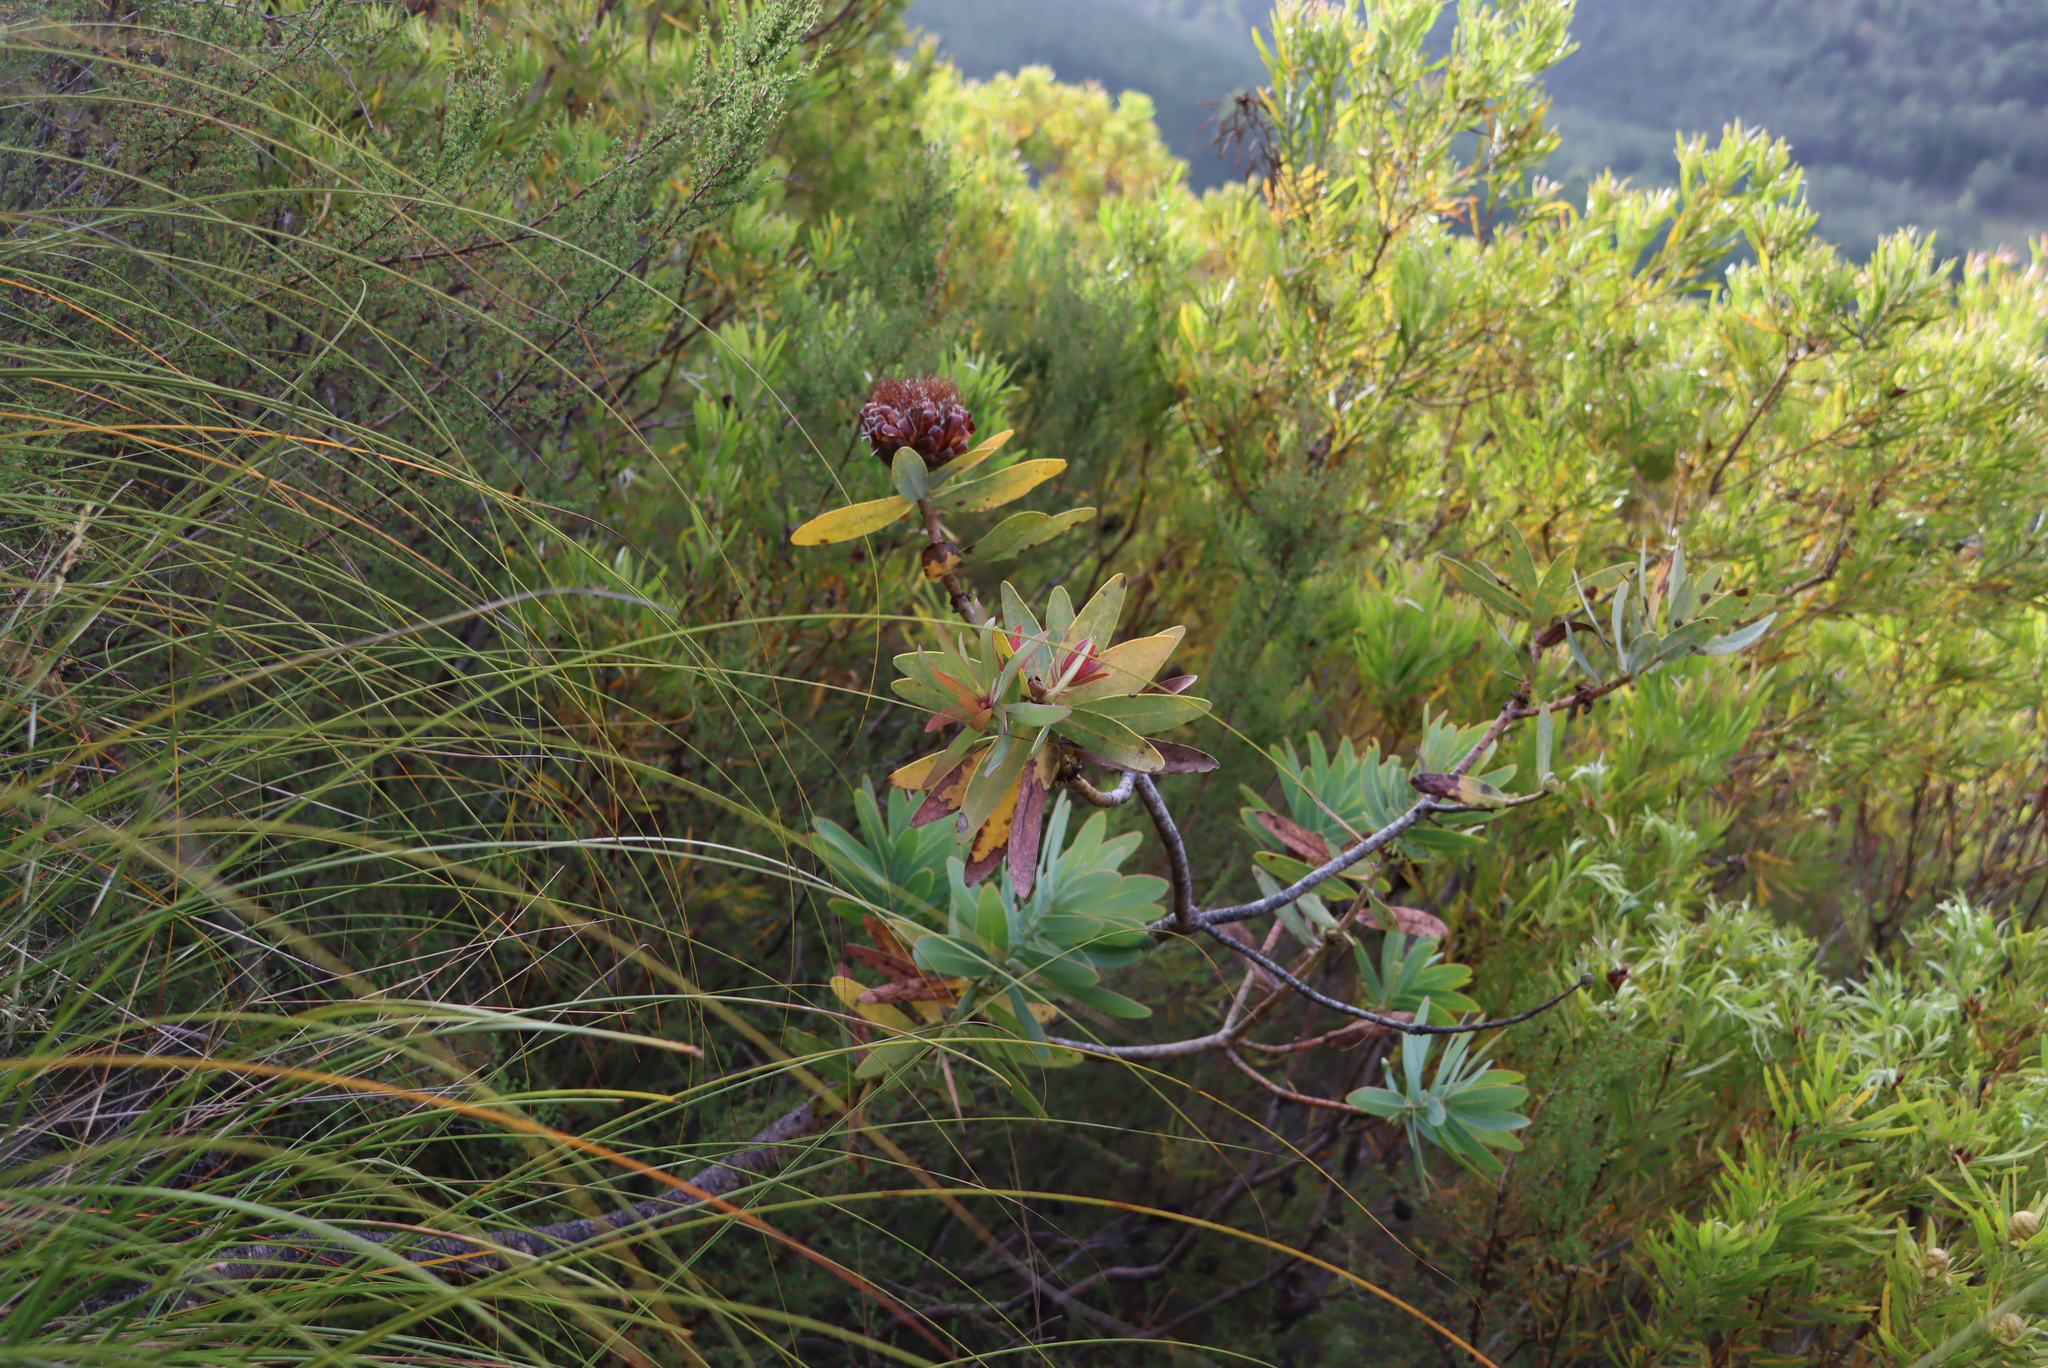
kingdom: Plantae
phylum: Tracheophyta
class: Magnoliopsida
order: Proteales
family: Proteaceae
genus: Protea
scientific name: Protea nitida
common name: Tree protea
